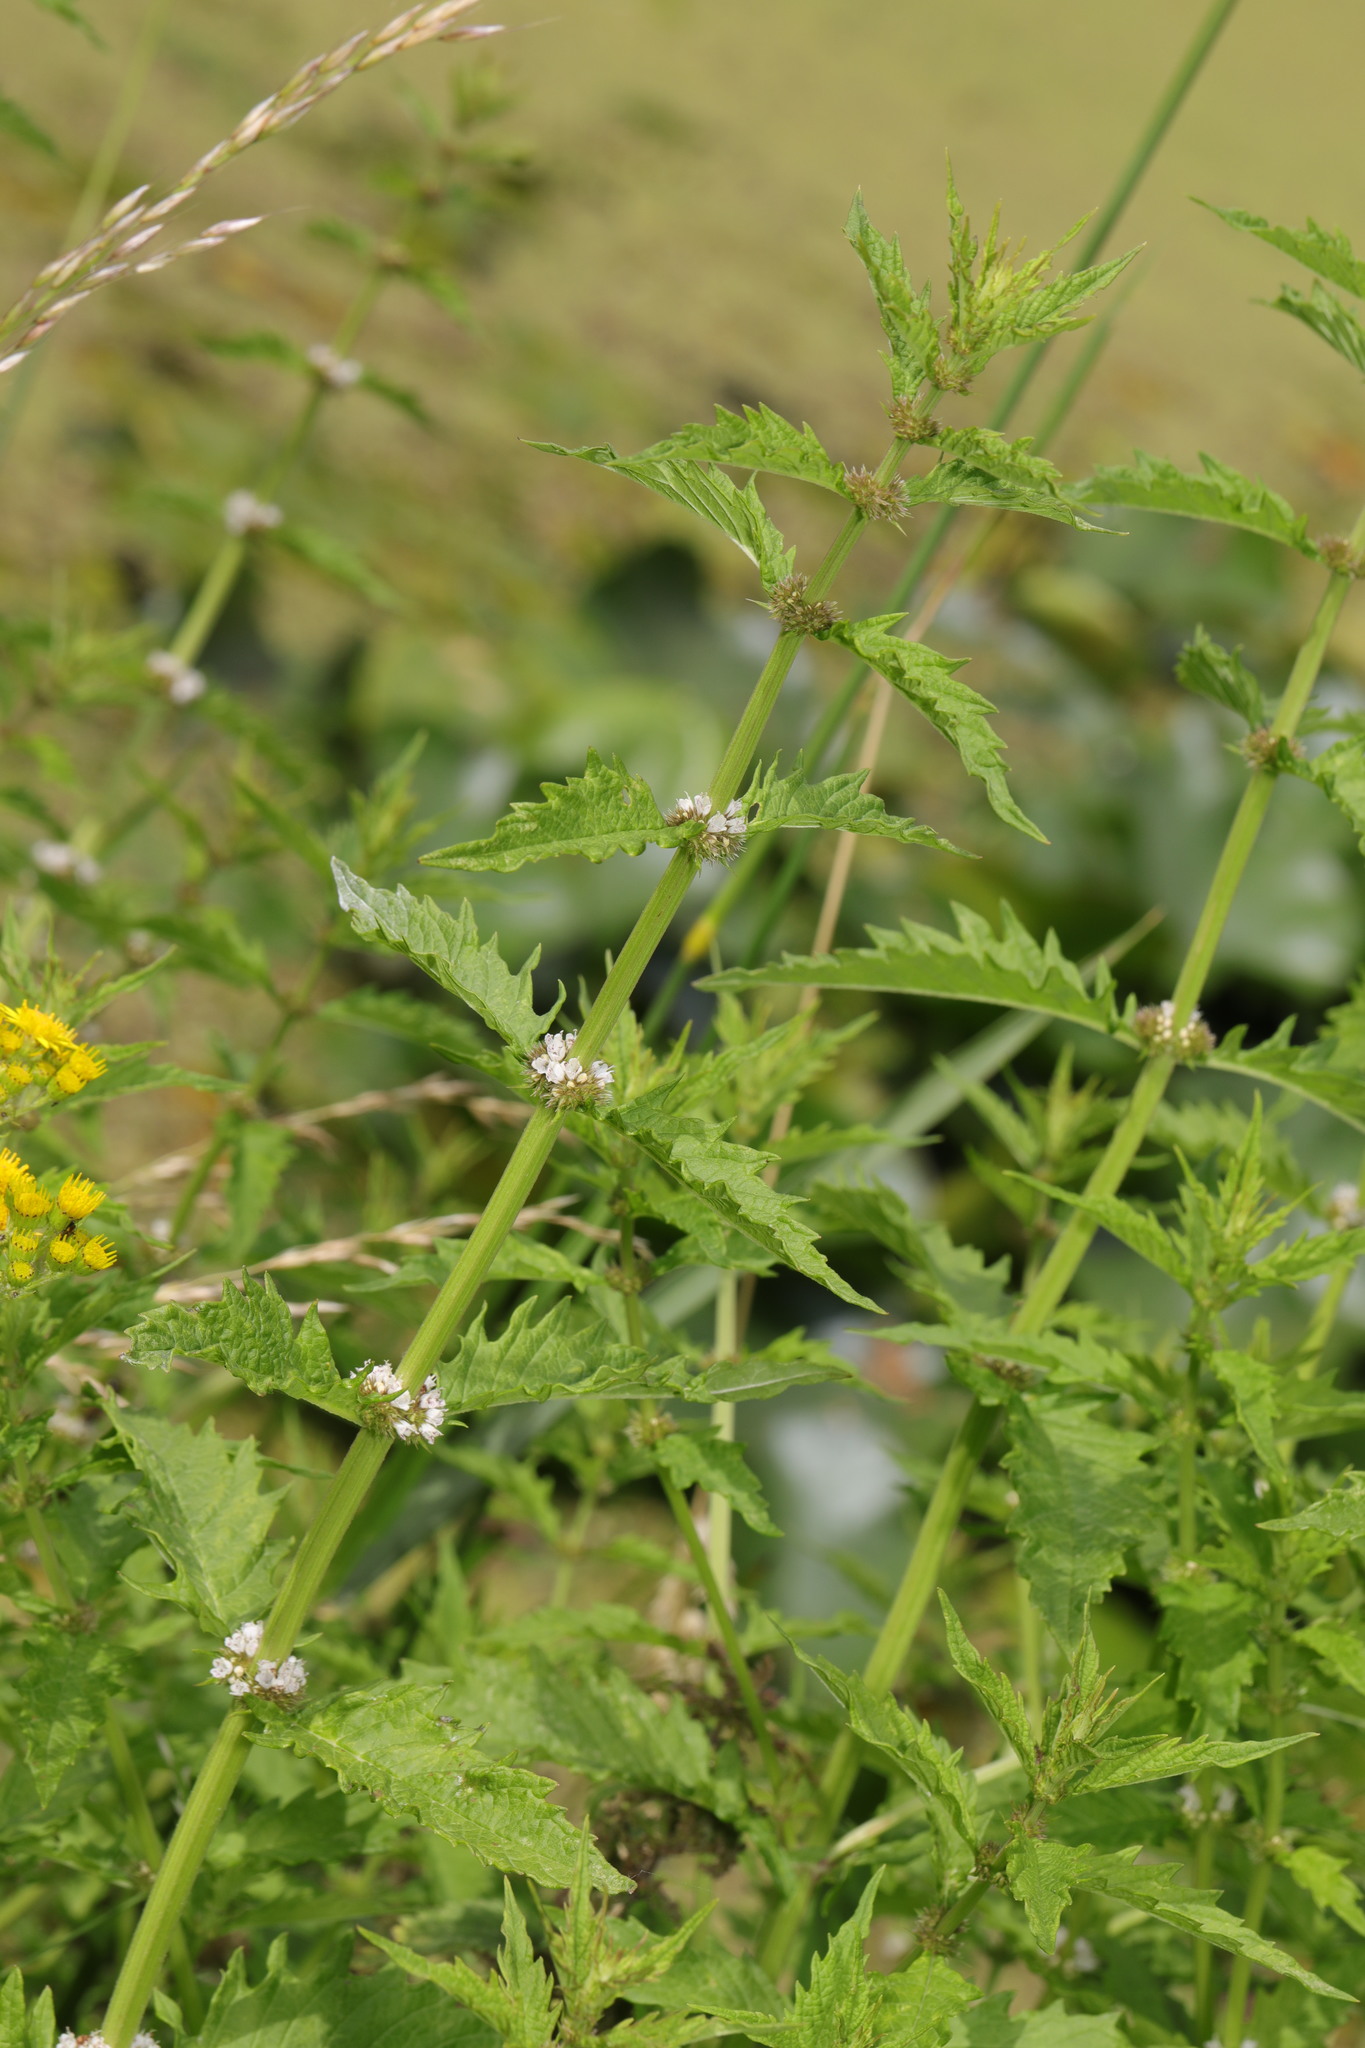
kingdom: Plantae
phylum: Tracheophyta
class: Magnoliopsida
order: Lamiales
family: Lamiaceae
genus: Lycopus
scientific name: Lycopus europaeus
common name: European bugleweed
